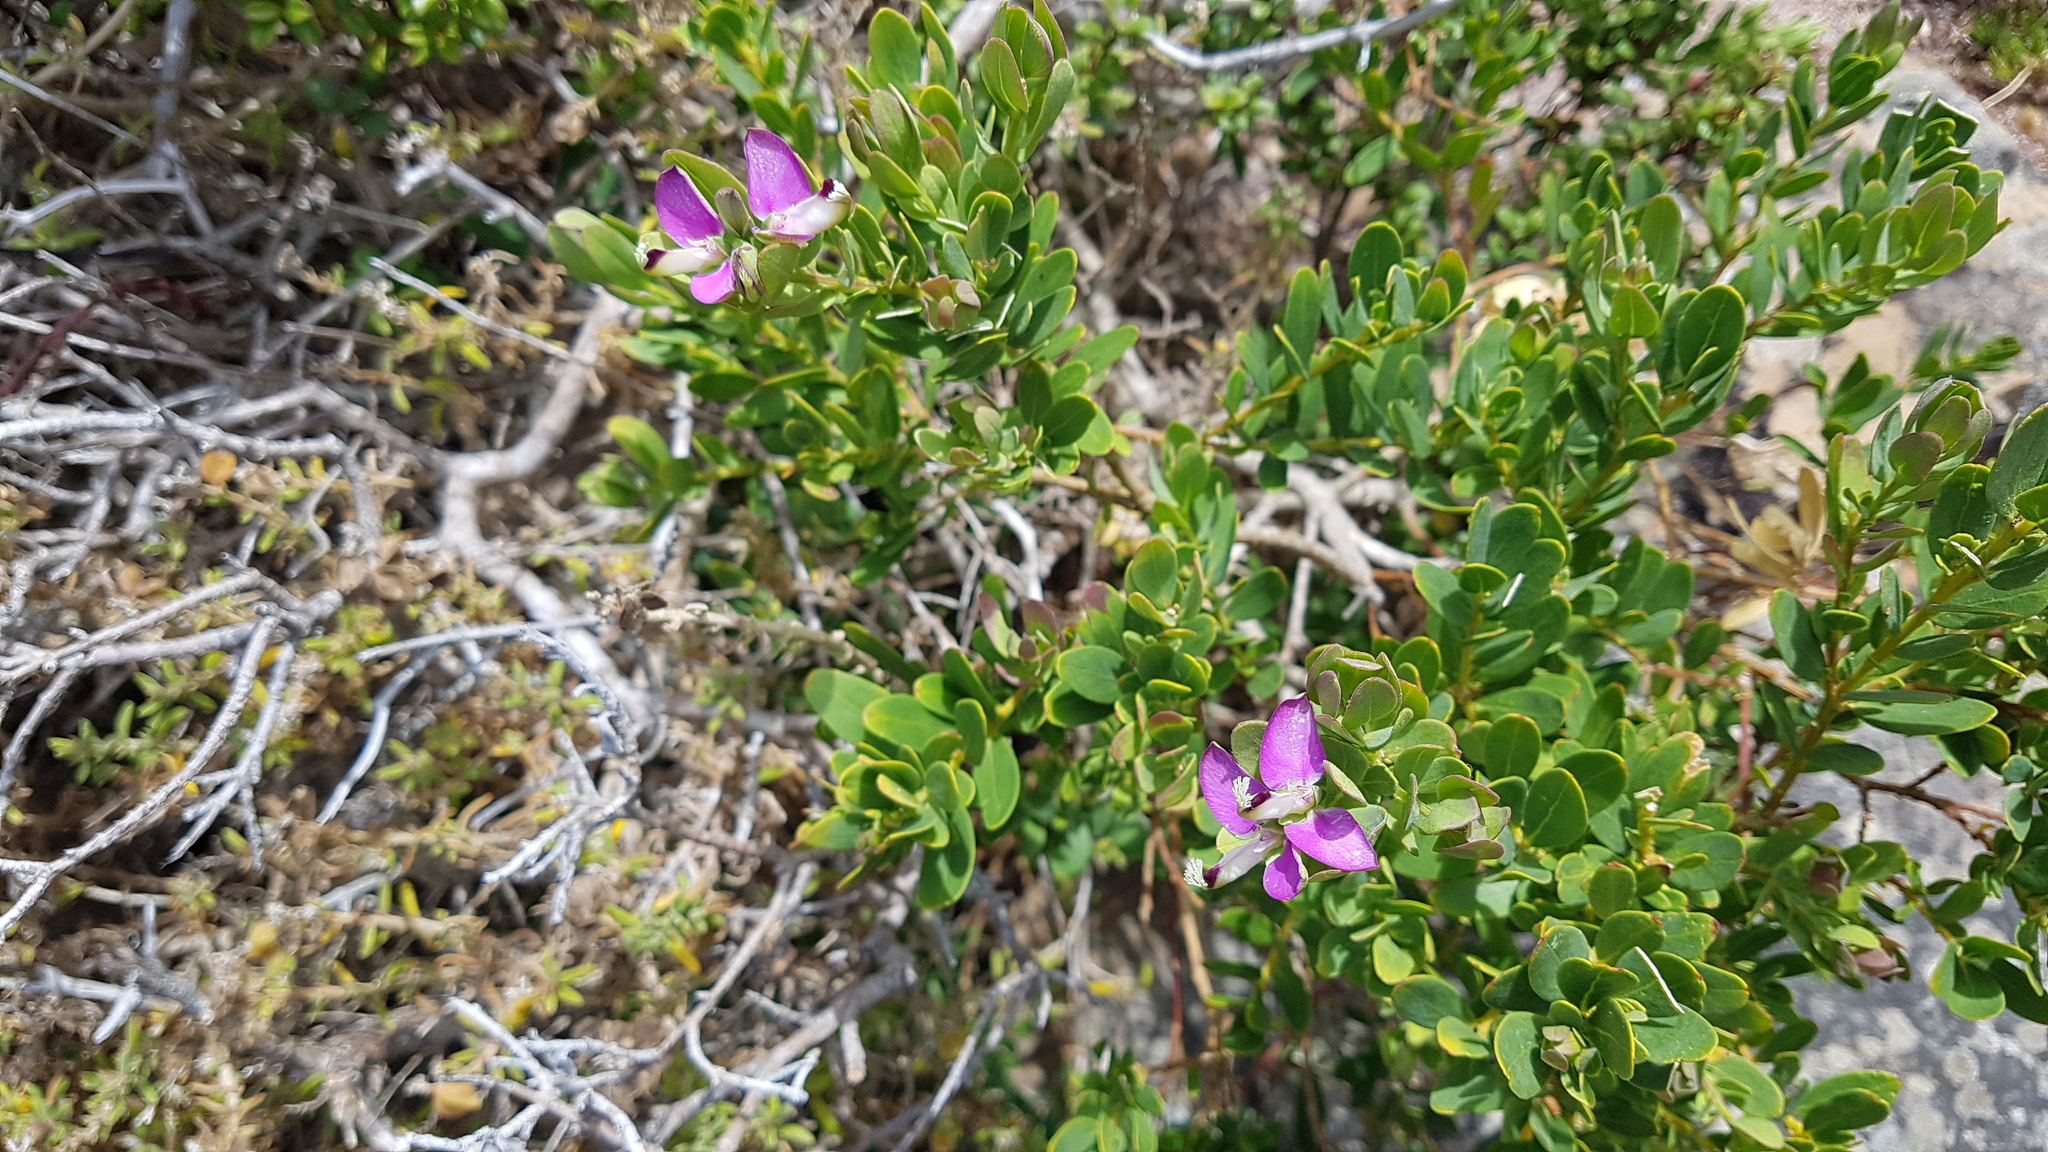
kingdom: Plantae
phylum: Tracheophyta
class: Magnoliopsida
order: Fabales
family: Polygalaceae
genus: Polygala
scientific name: Polygala myrtifolia
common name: Myrtle-leaf milkwort
